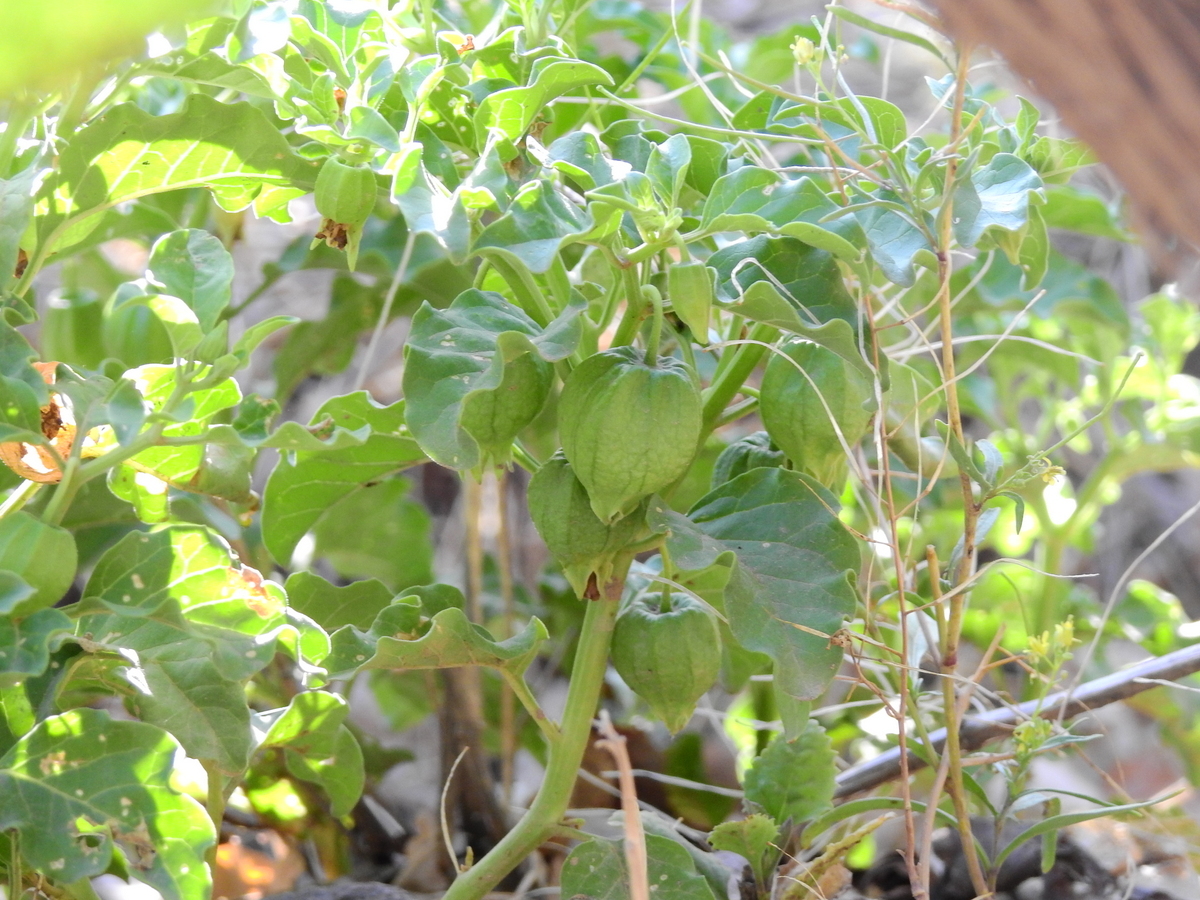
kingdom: Plantae
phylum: Tracheophyta
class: Magnoliopsida
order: Solanales
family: Solanaceae
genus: Physalis
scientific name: Physalis viscosa
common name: Stellate ground-cherry
